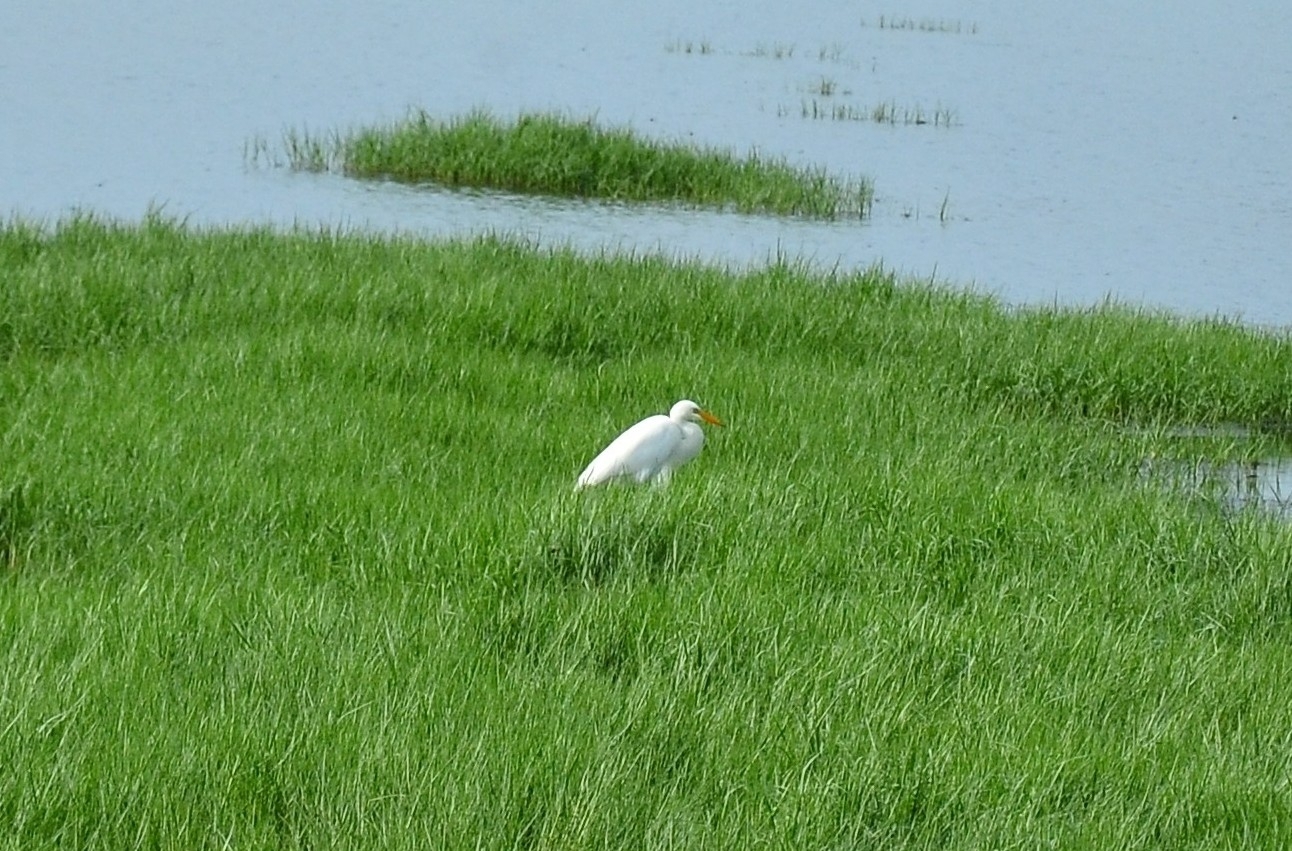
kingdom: Animalia
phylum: Chordata
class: Aves
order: Pelecaniformes
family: Ardeidae
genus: Egretta
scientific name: Egretta intermedia
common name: Intermediate egret
